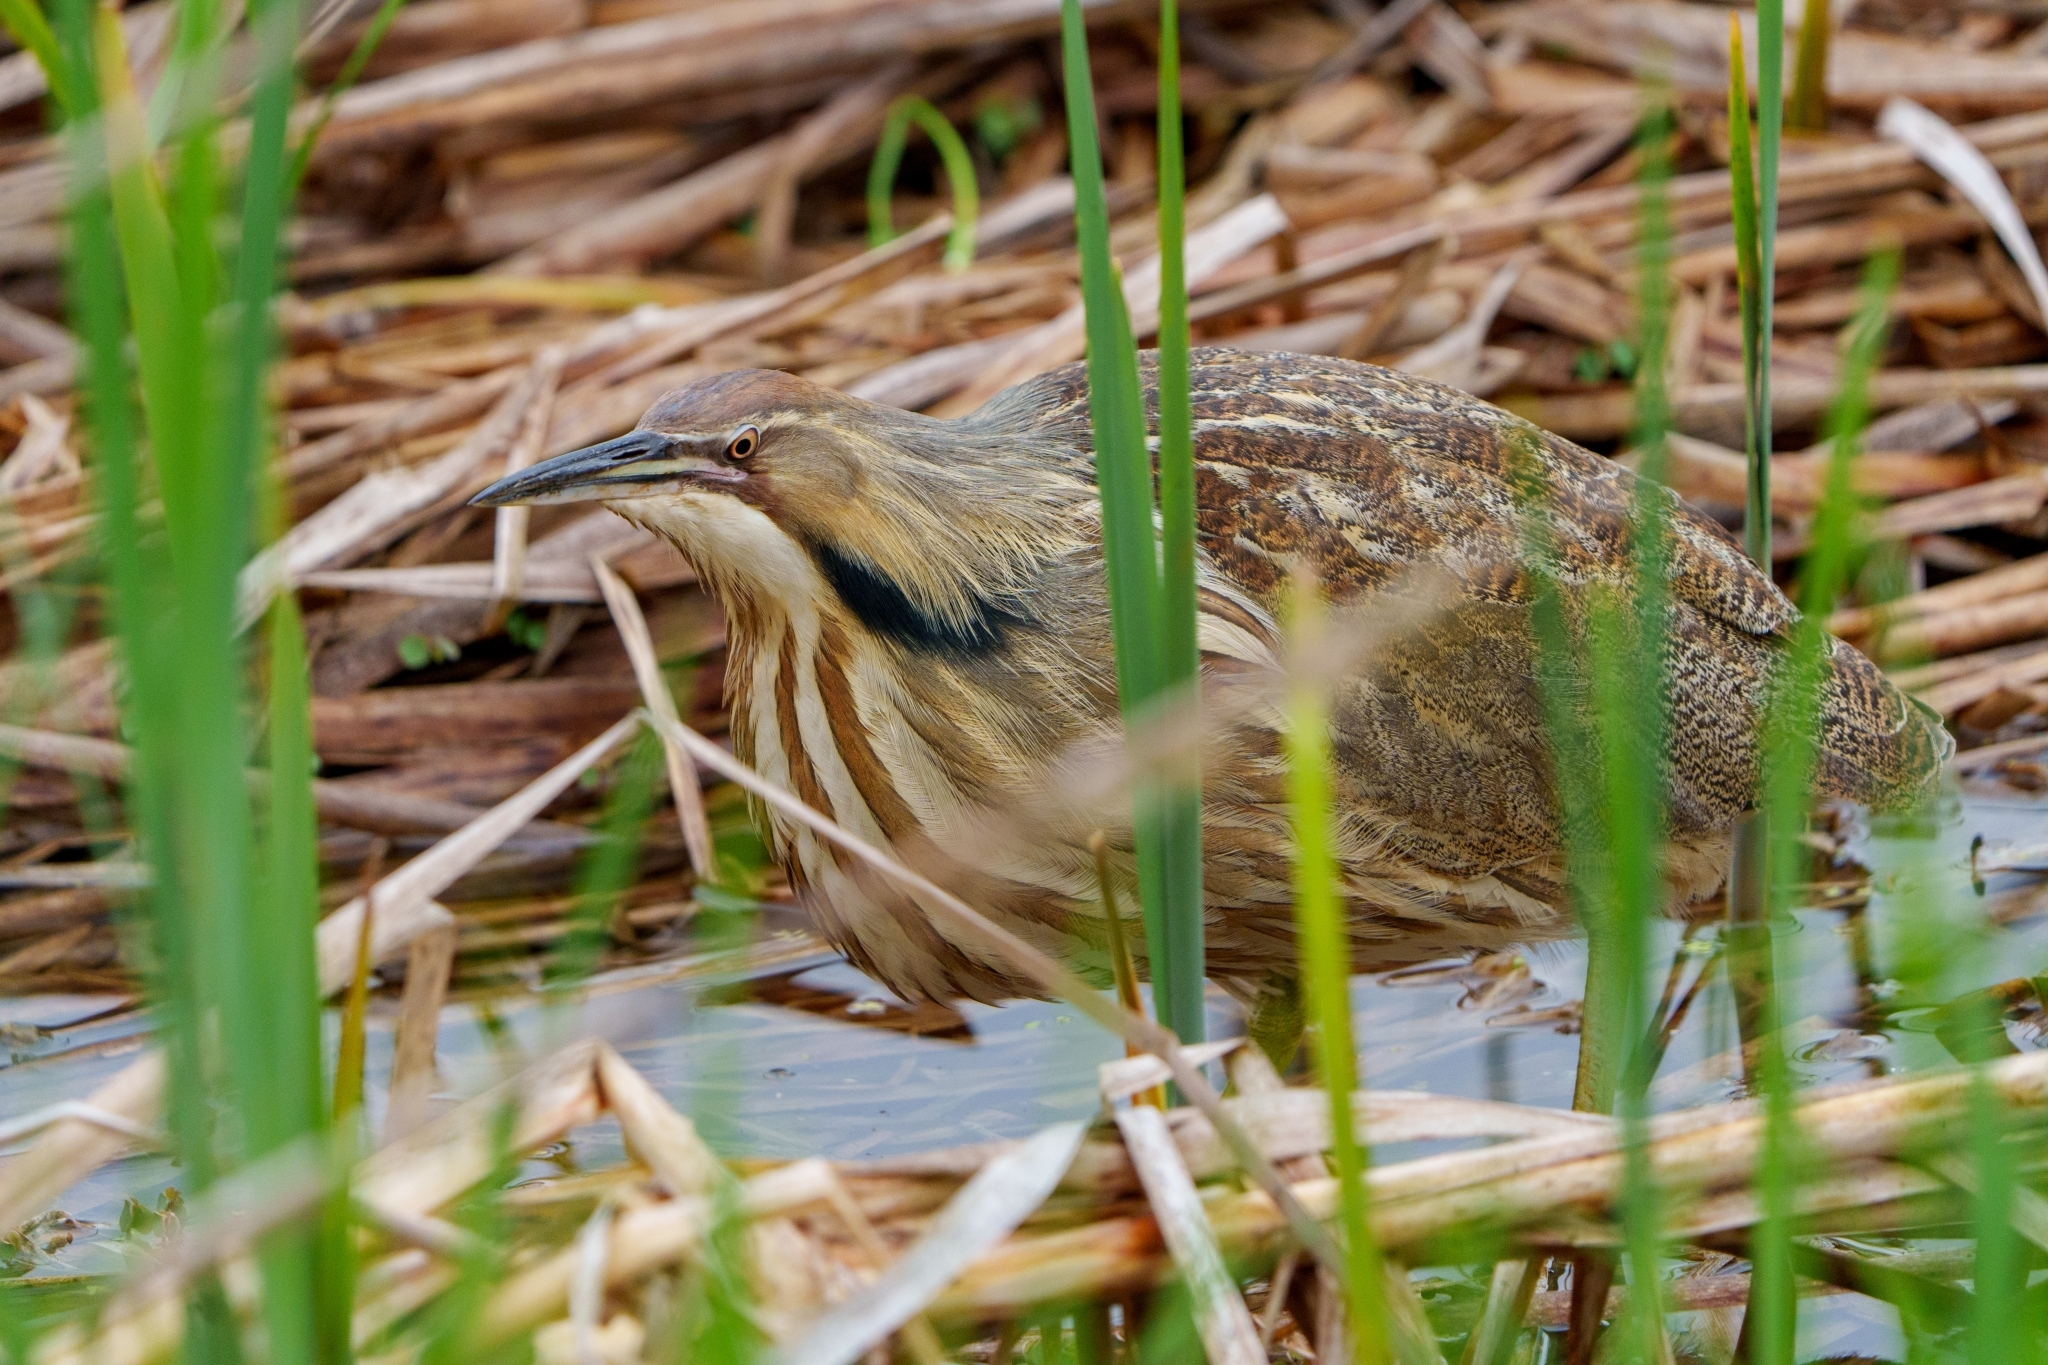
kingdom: Animalia
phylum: Chordata
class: Aves
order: Pelecaniformes
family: Ardeidae
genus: Botaurus
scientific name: Botaurus lentiginosus
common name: American bittern
